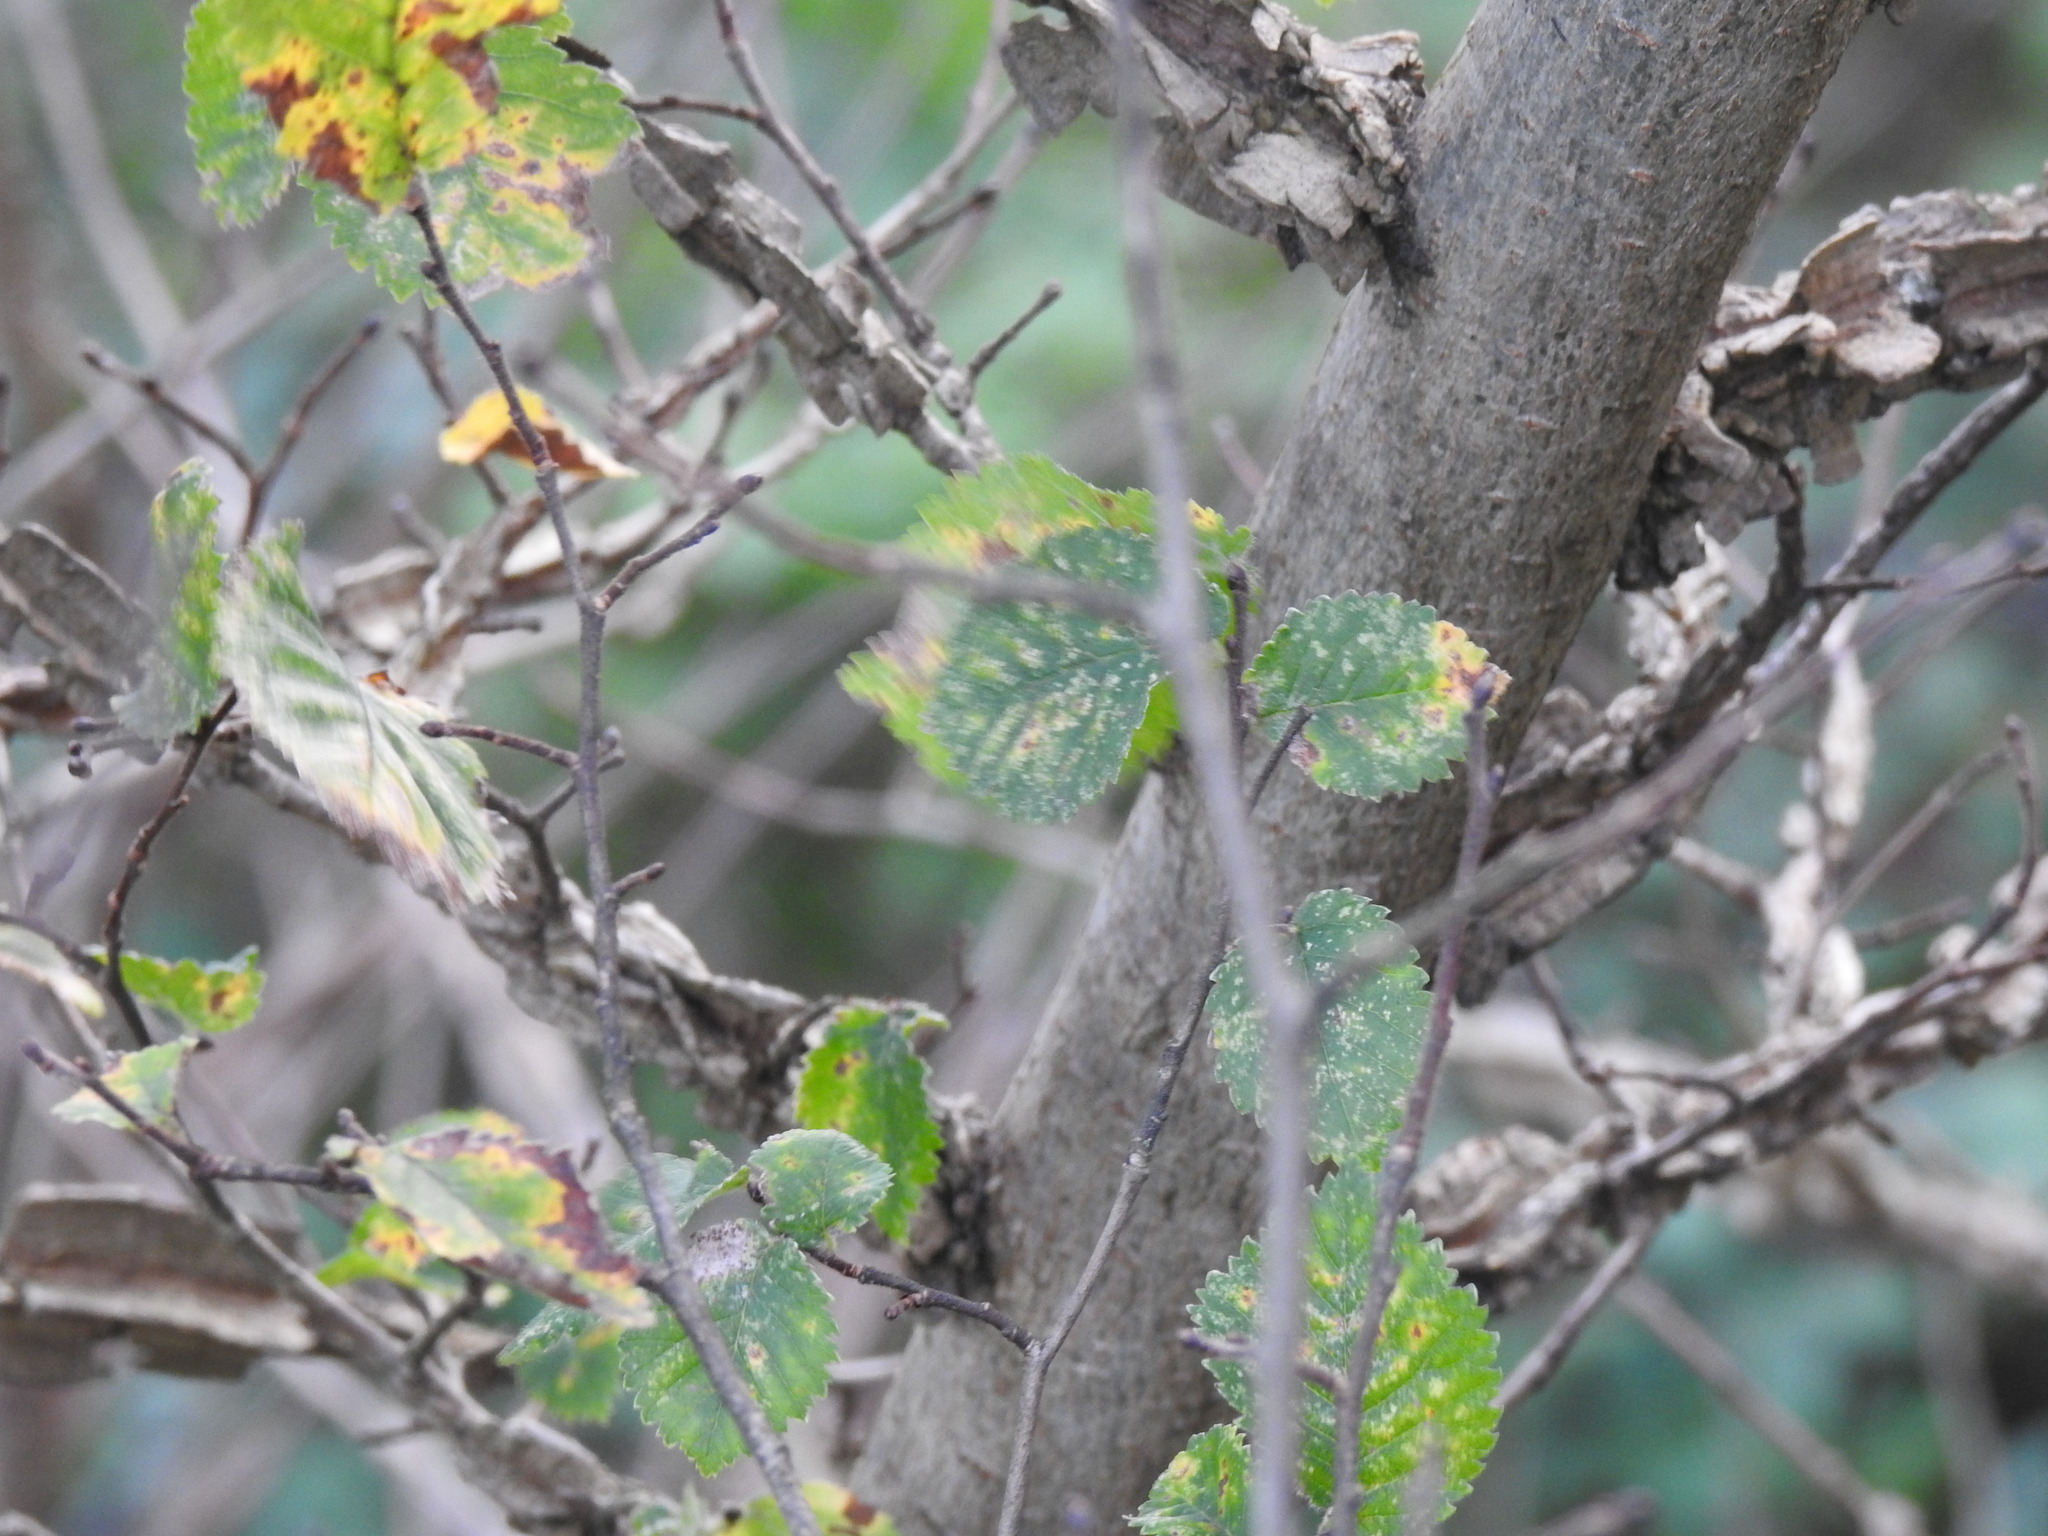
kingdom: Plantae
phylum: Tracheophyta
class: Magnoliopsida
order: Rosales
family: Ulmaceae
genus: Ulmus
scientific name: Ulmus minor
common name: Small-leaved elm
